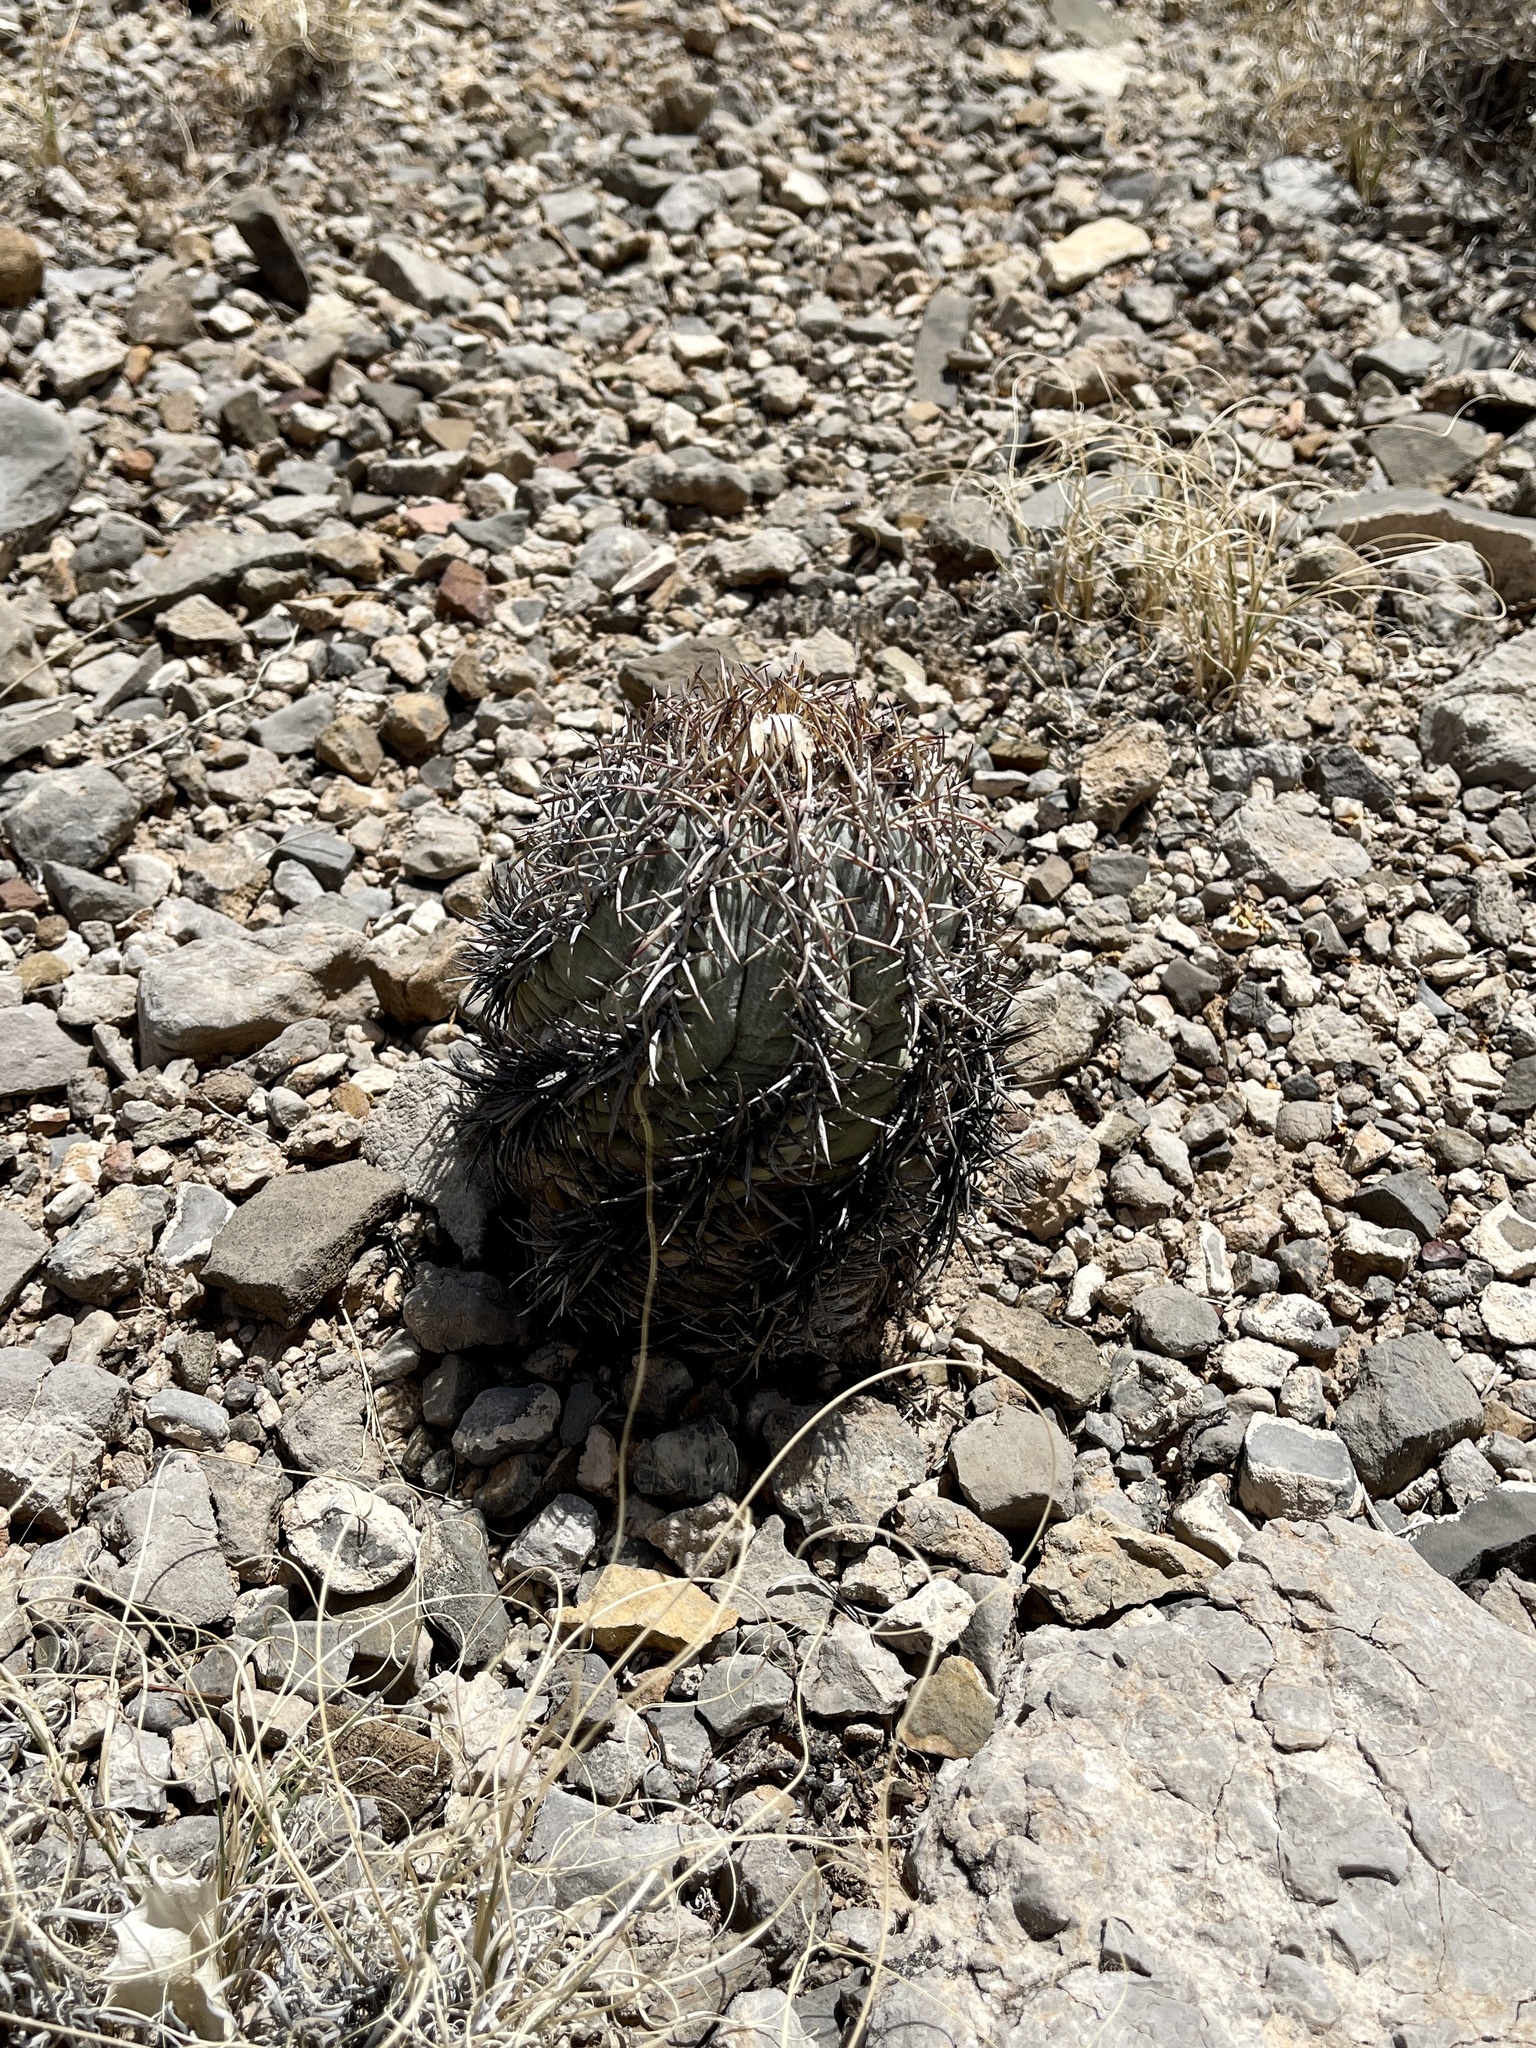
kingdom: Plantae
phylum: Tracheophyta
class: Magnoliopsida
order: Caryophyllales
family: Cactaceae
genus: Echinocactus
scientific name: Echinocactus horizonthalonius
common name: Devilshead
